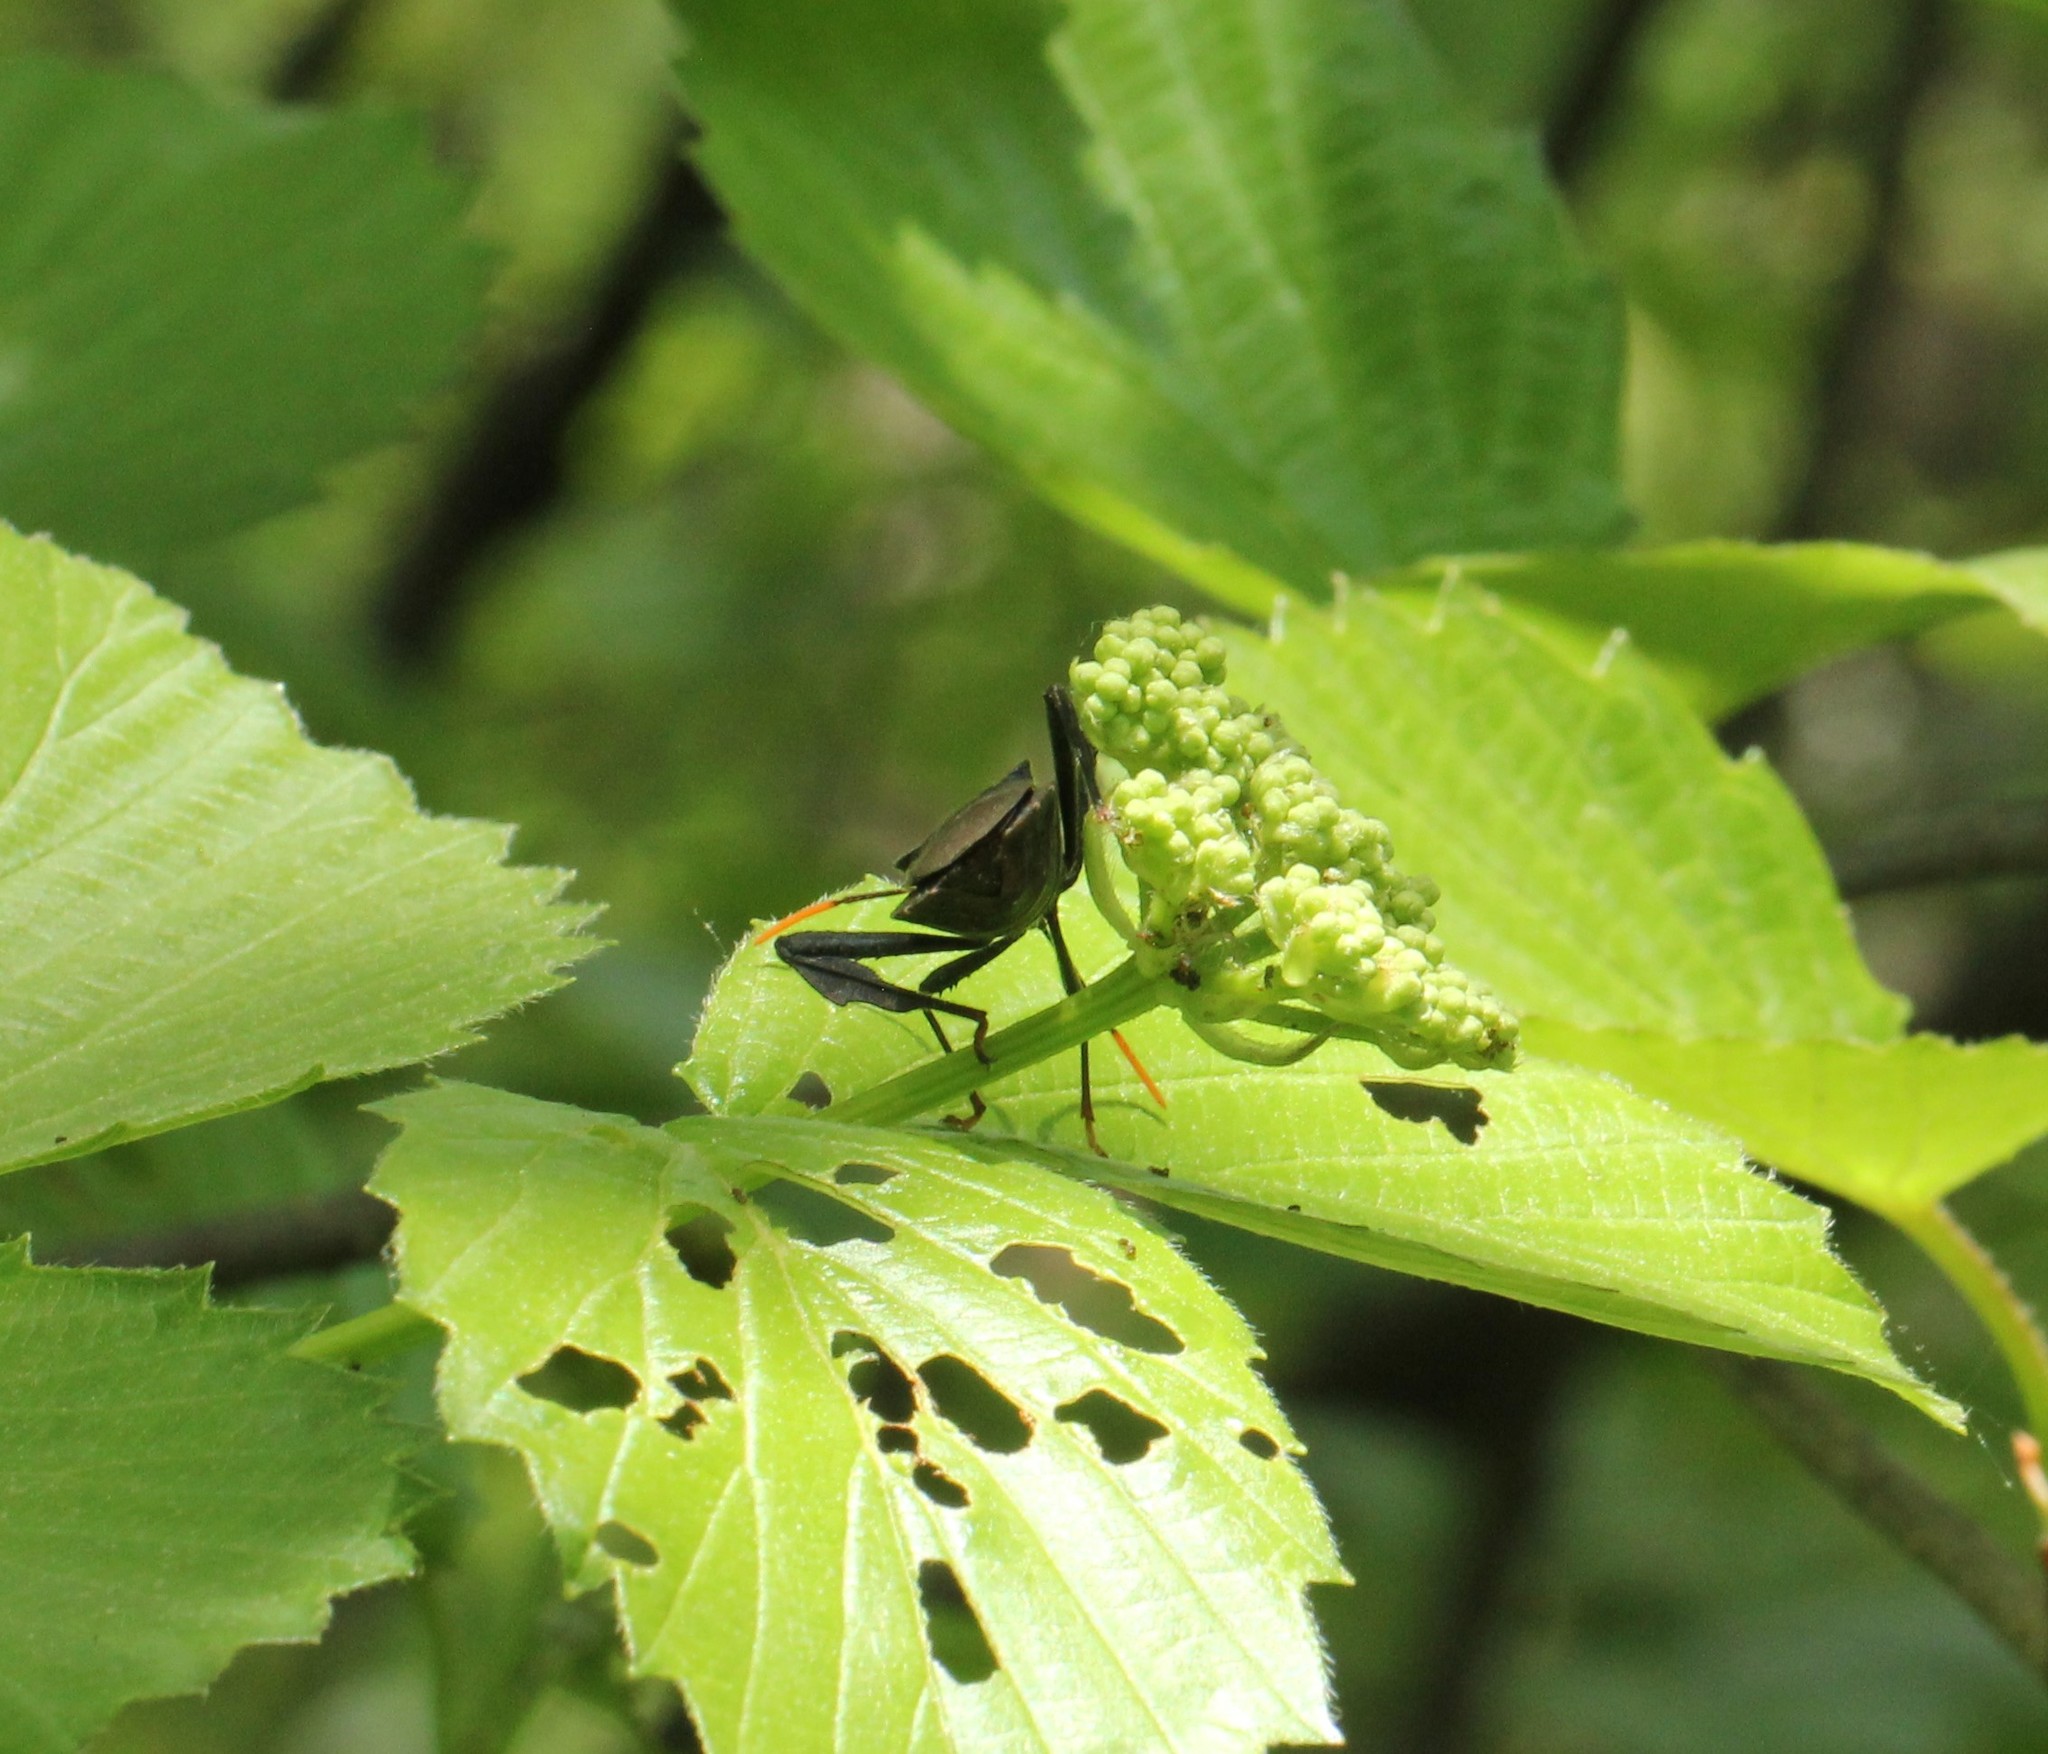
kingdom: Animalia
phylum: Arthropoda
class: Insecta
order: Hemiptera
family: Coreidae
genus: Acanthocephala
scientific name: Acanthocephala terminalis
